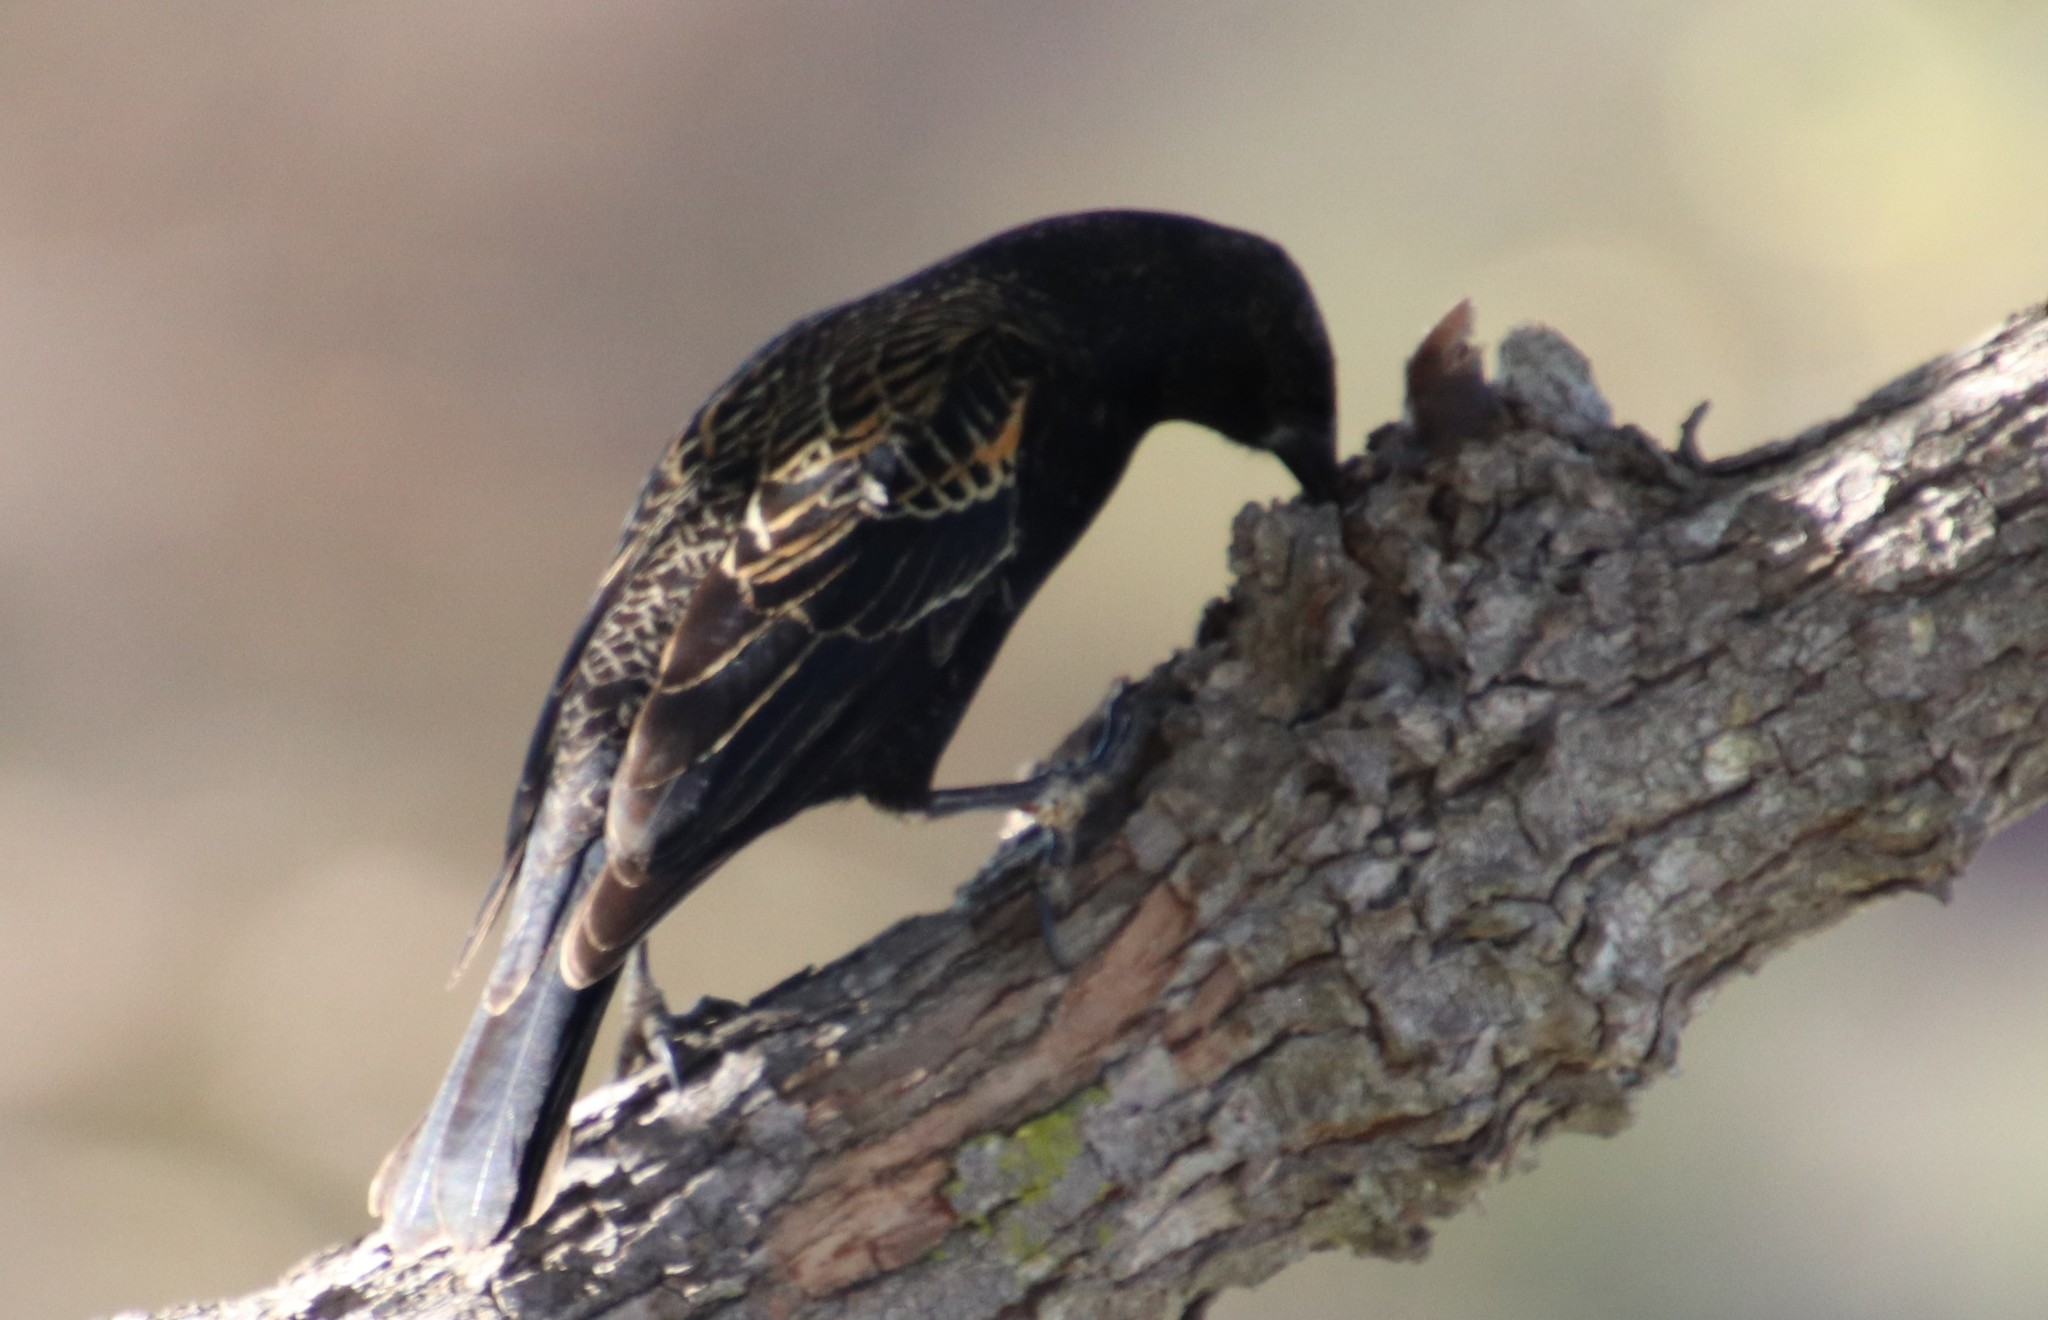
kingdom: Animalia
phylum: Chordata
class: Aves
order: Passeriformes
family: Icteridae
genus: Agelaius
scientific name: Agelaius phoeniceus
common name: Red-winged blackbird
